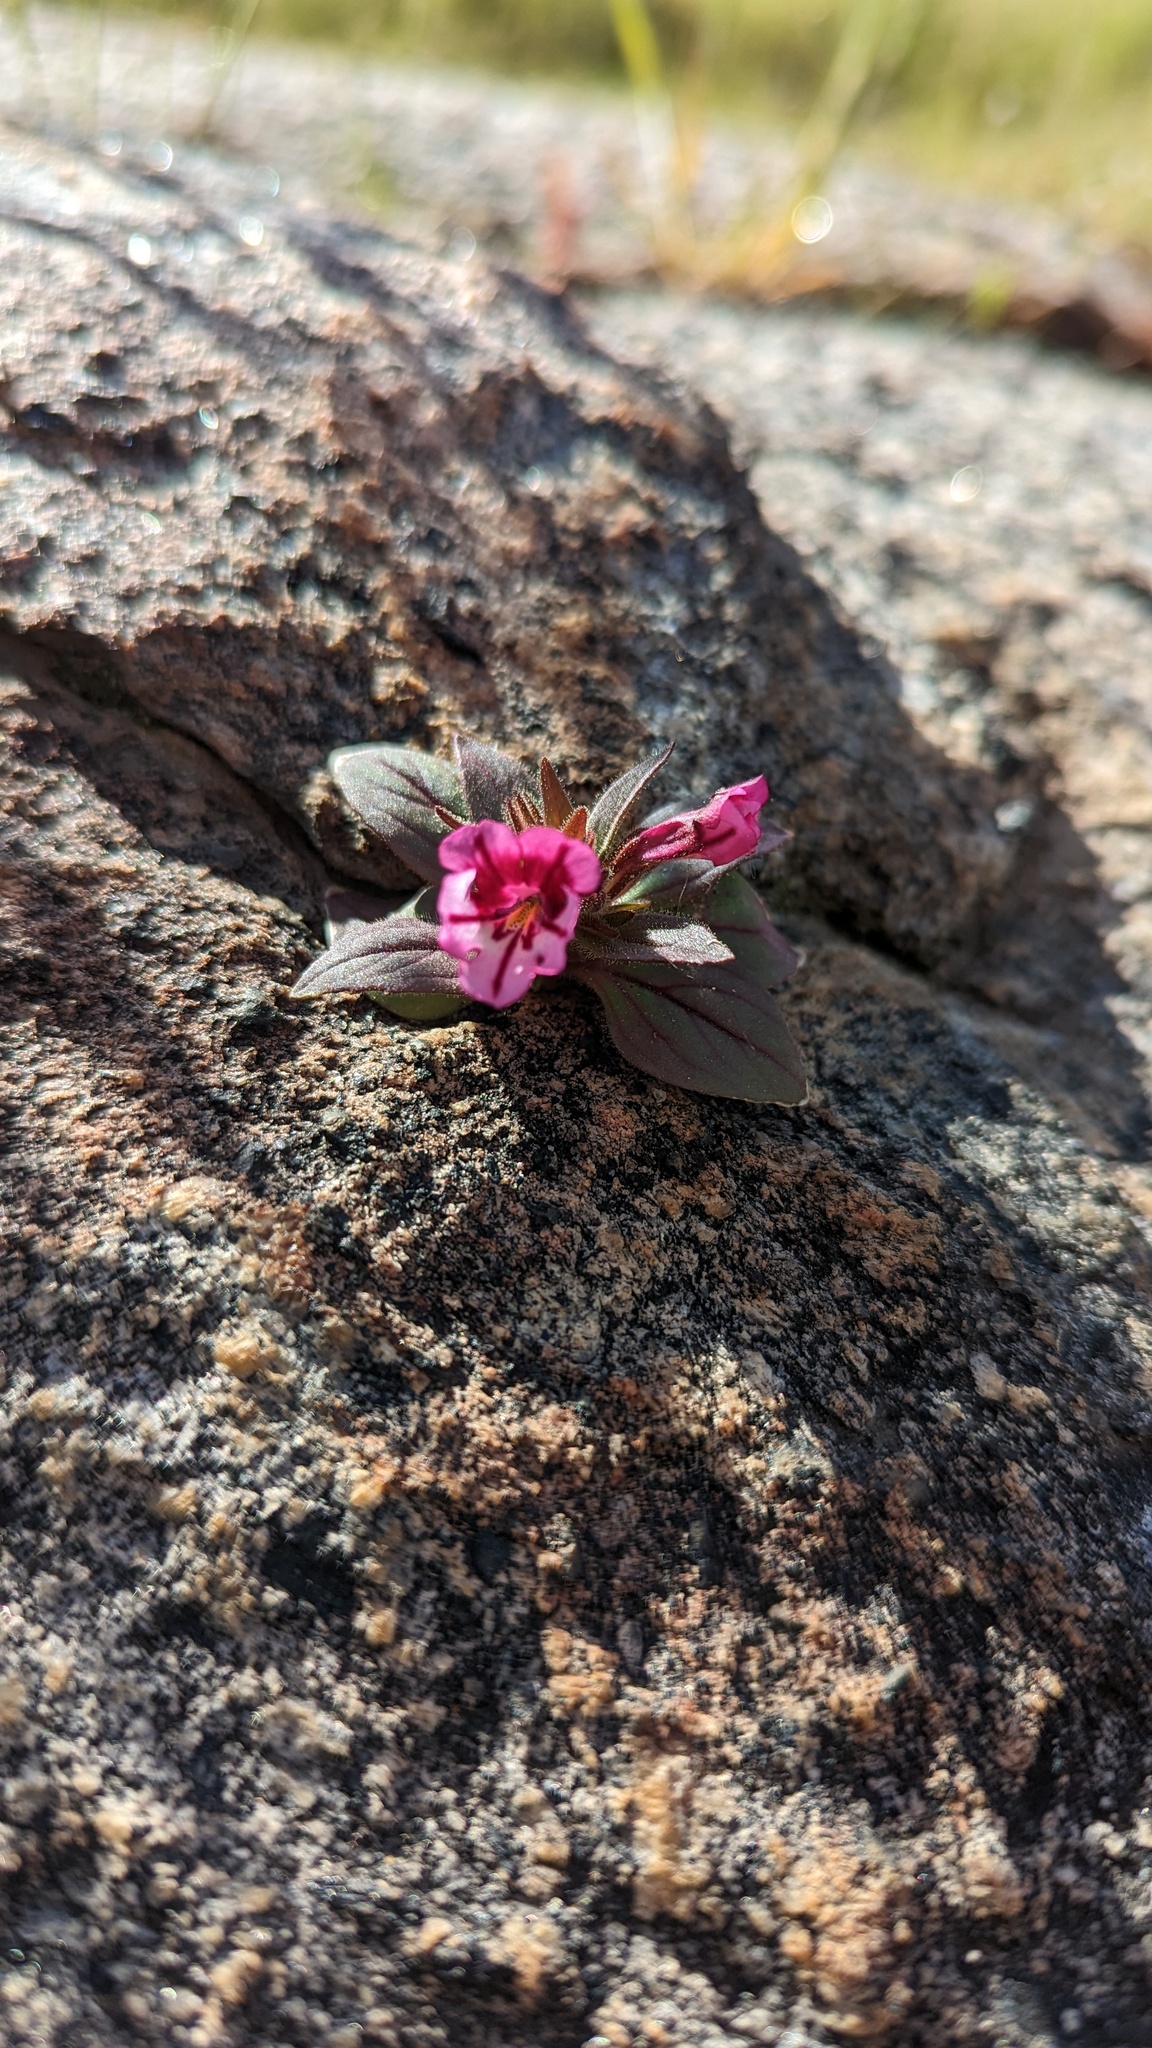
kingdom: Plantae
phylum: Tracheophyta
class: Magnoliopsida
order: Lamiales
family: Phrymaceae
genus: Diplacus
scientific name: Diplacus graniticola
